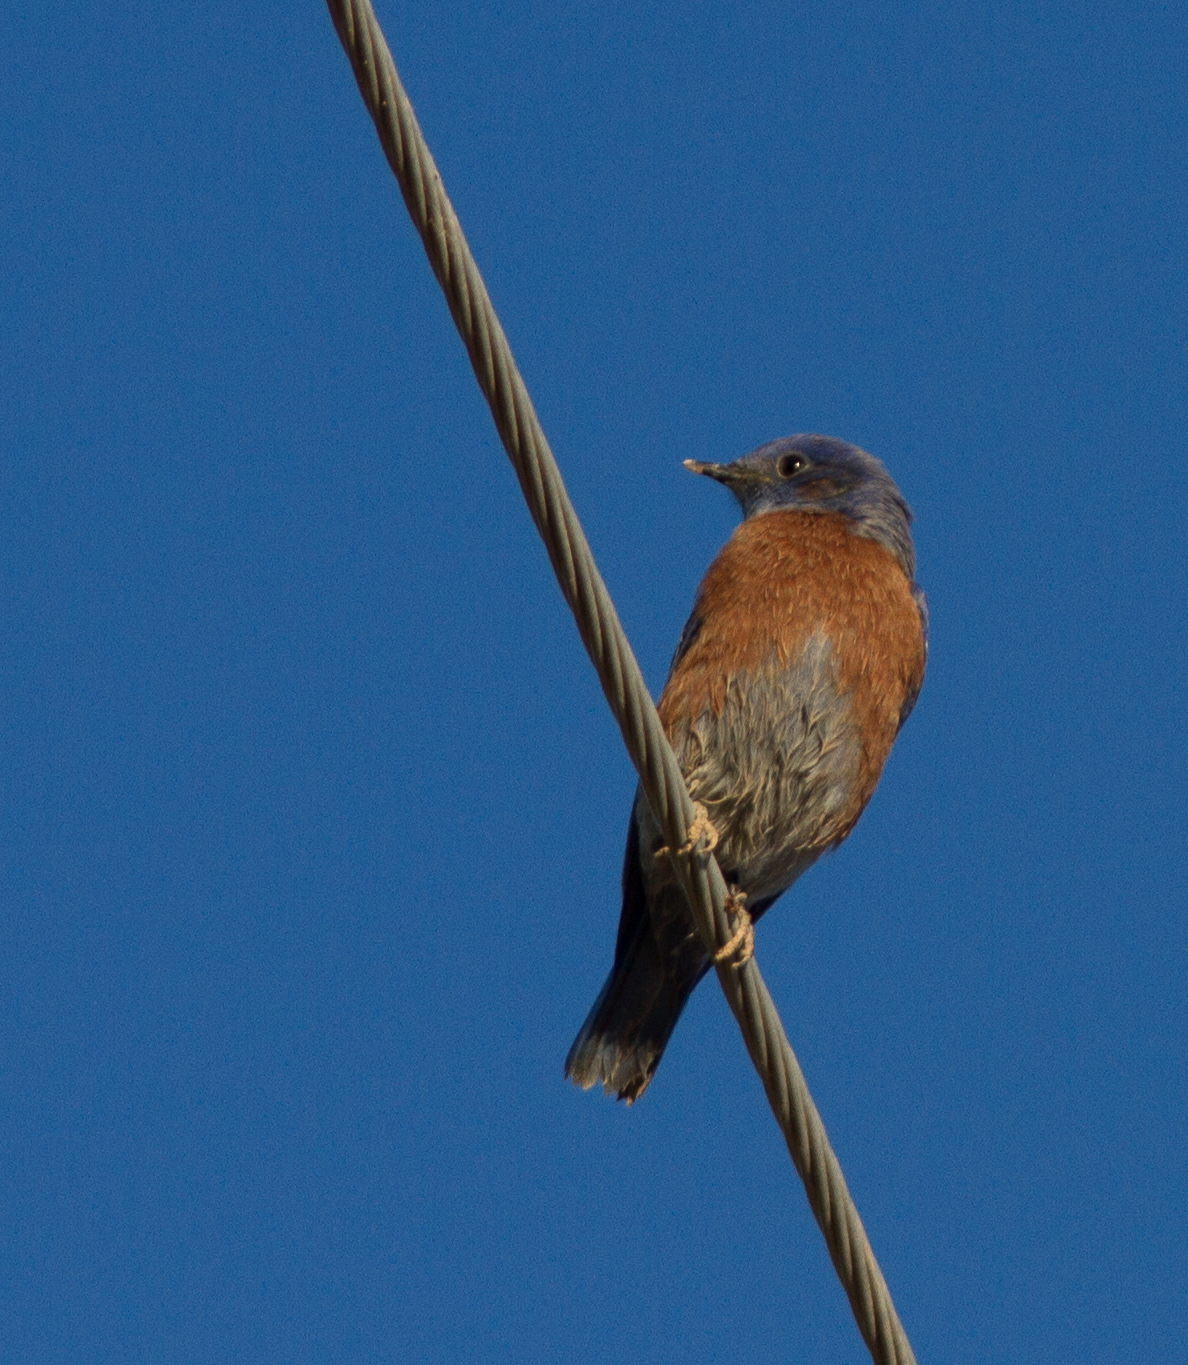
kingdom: Animalia
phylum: Chordata
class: Aves
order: Passeriformes
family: Turdidae
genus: Sialia
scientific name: Sialia mexicana
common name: Western bluebird
